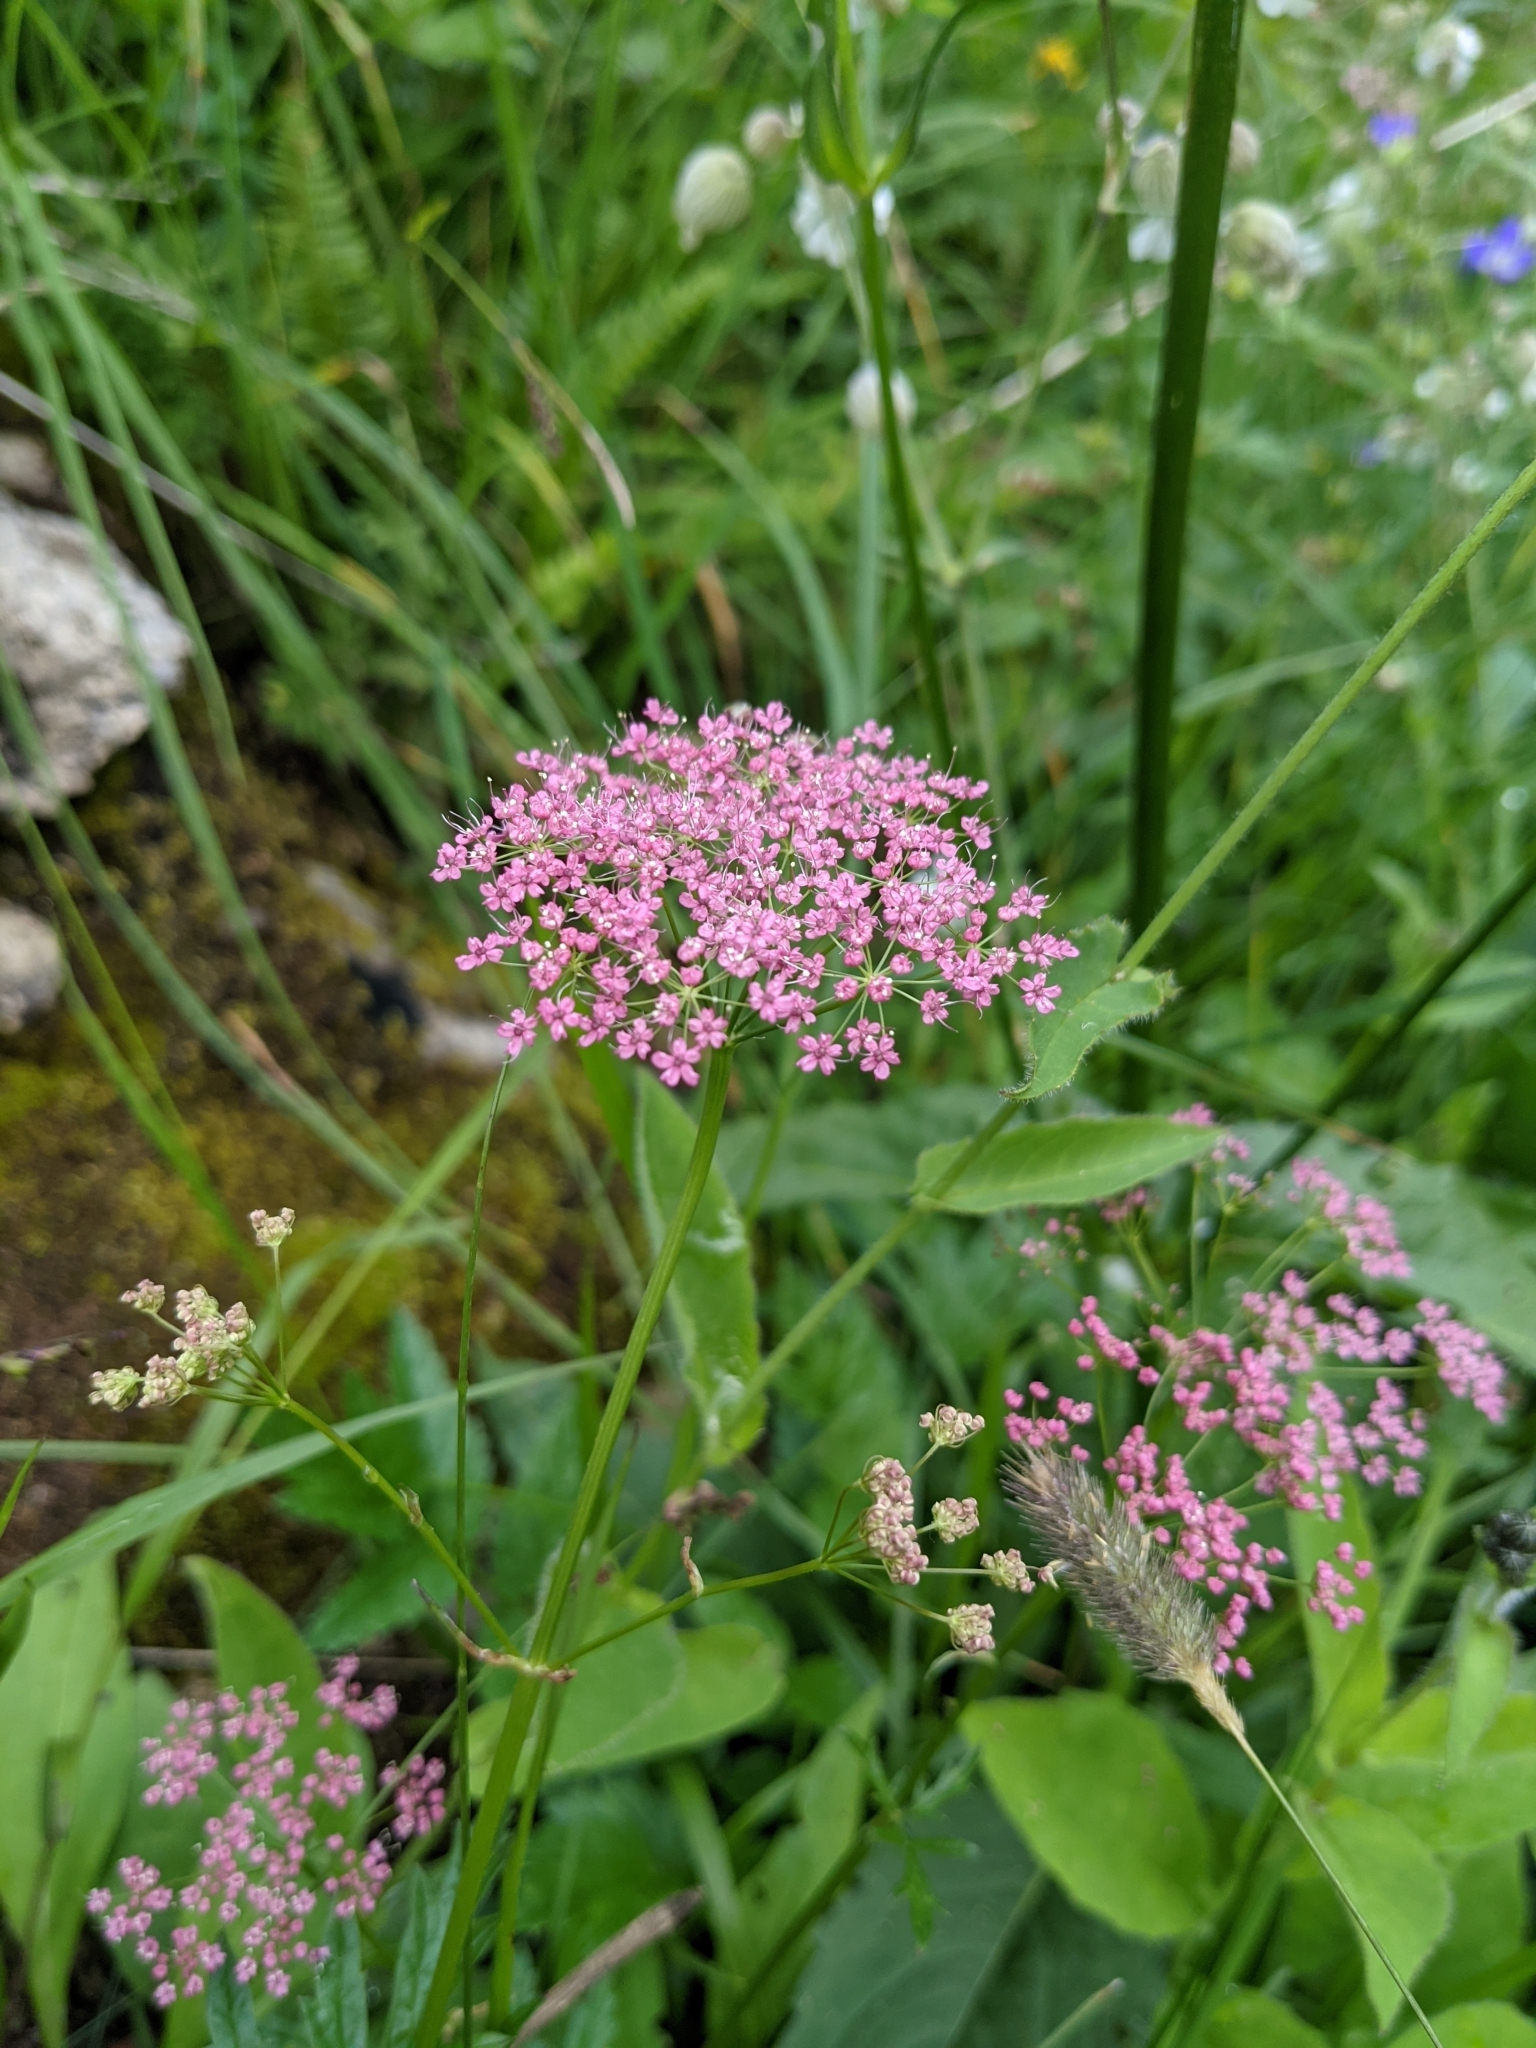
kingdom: Plantae
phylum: Tracheophyta
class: Magnoliopsida
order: Apiales
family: Apiaceae
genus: Pimpinella
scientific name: Pimpinella major
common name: Greater burnet-saxifrage
